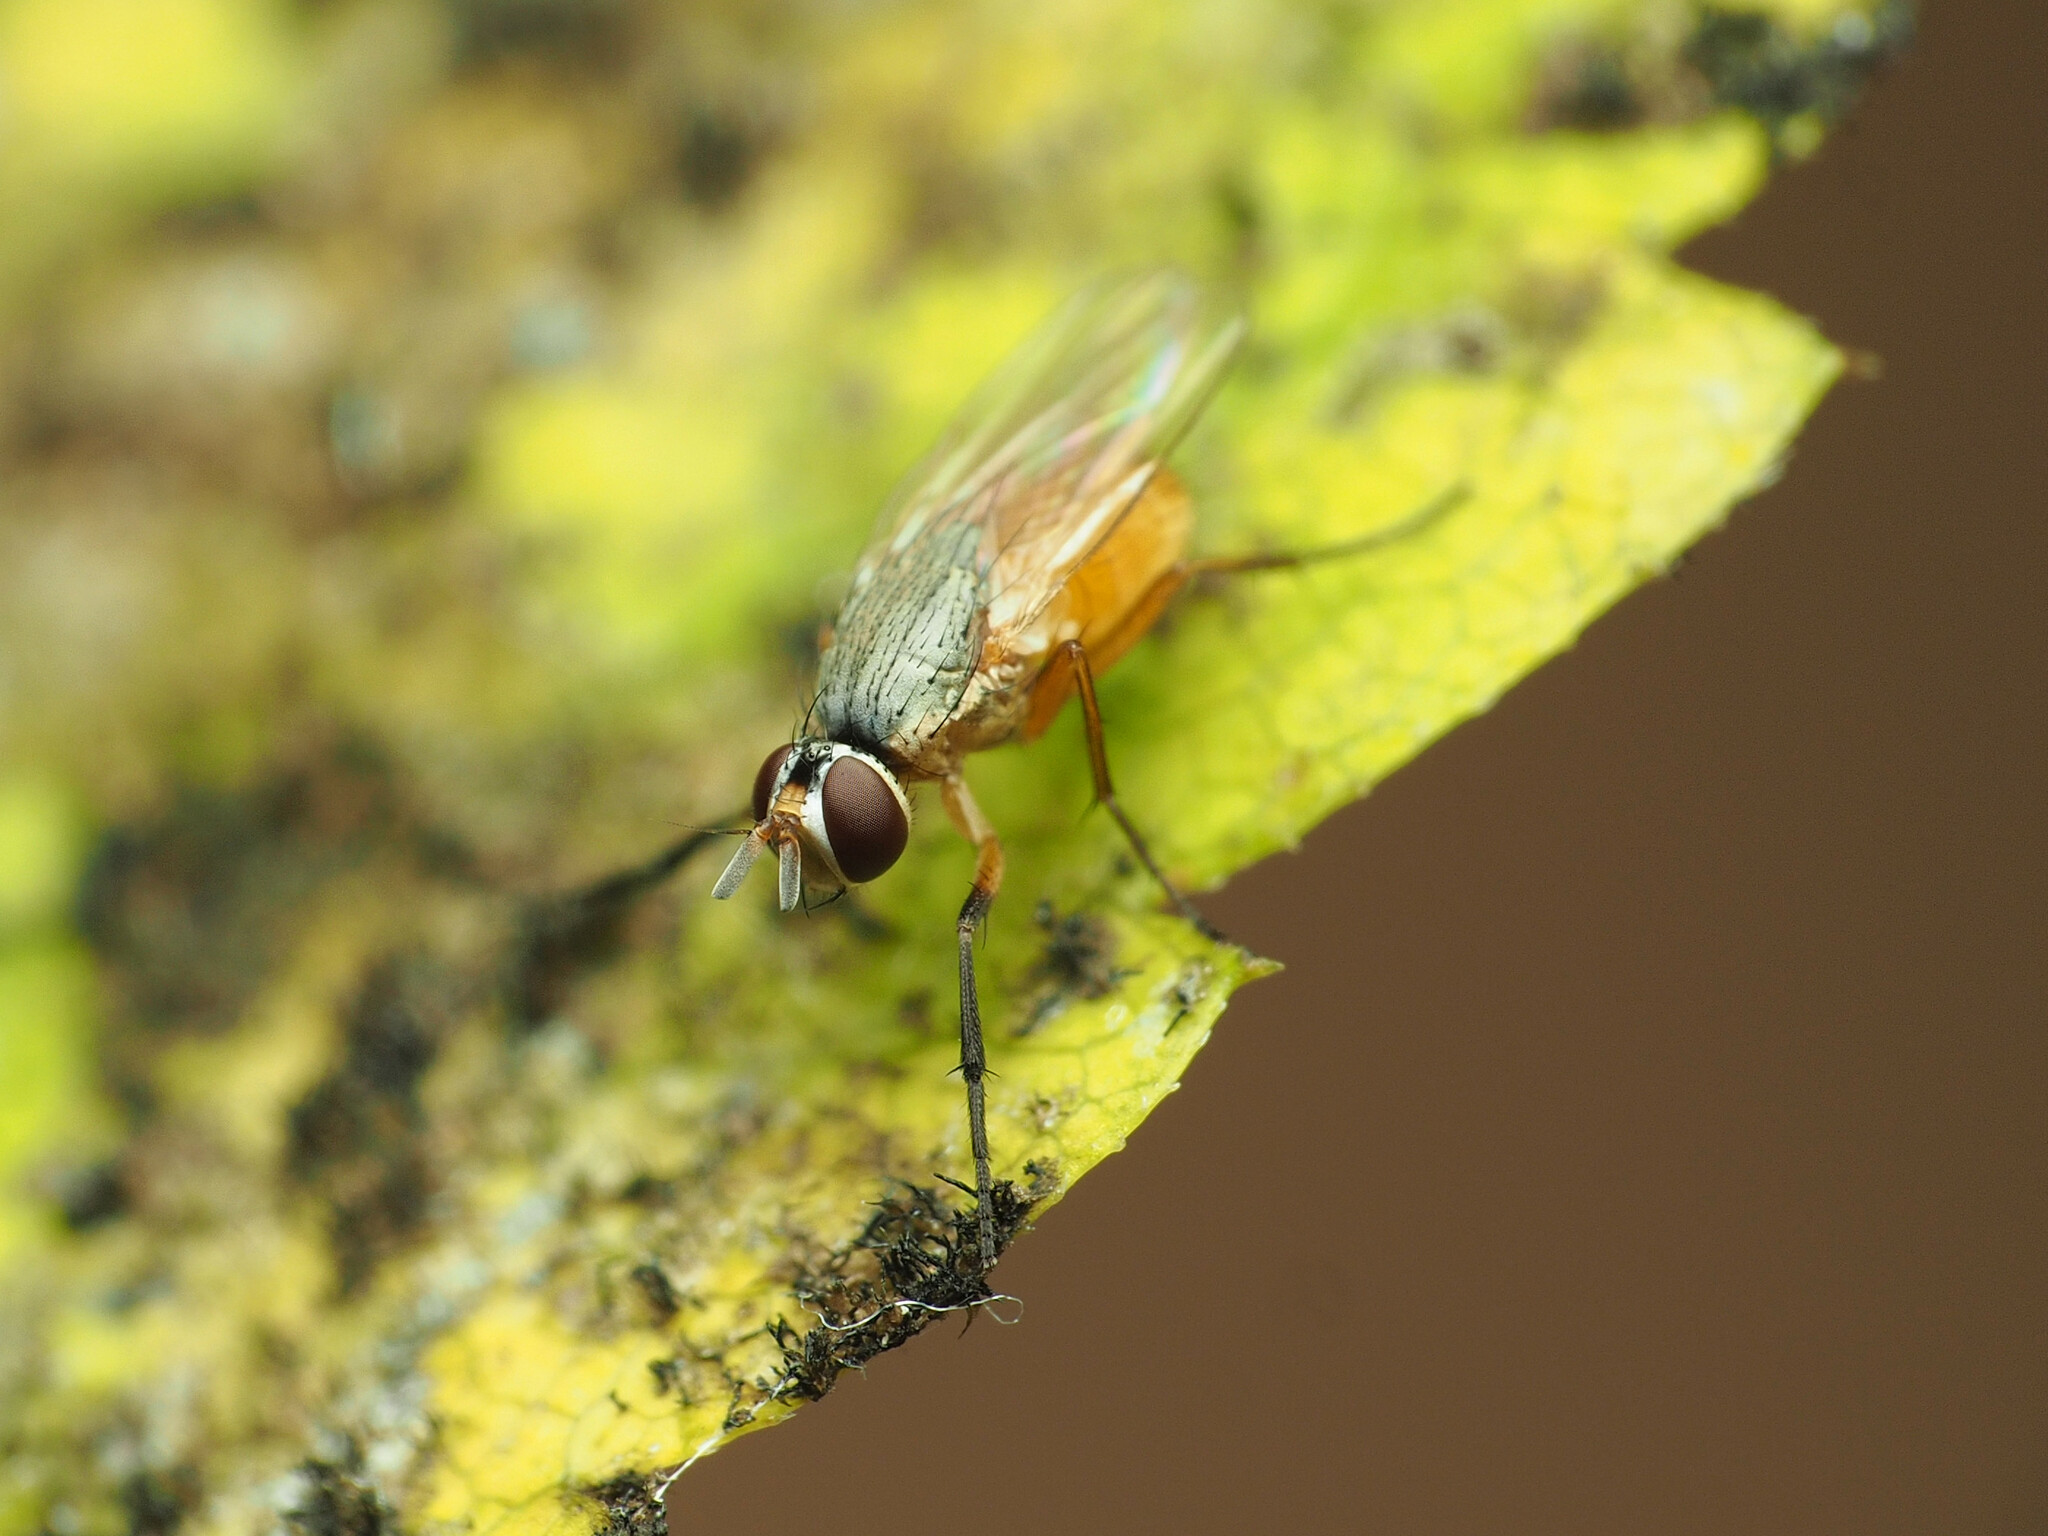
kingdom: Animalia
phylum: Arthropoda
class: Insecta
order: Diptera
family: Muscidae
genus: Atherigona
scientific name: Atherigona reversura
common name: Bermudagrass stem maggot
